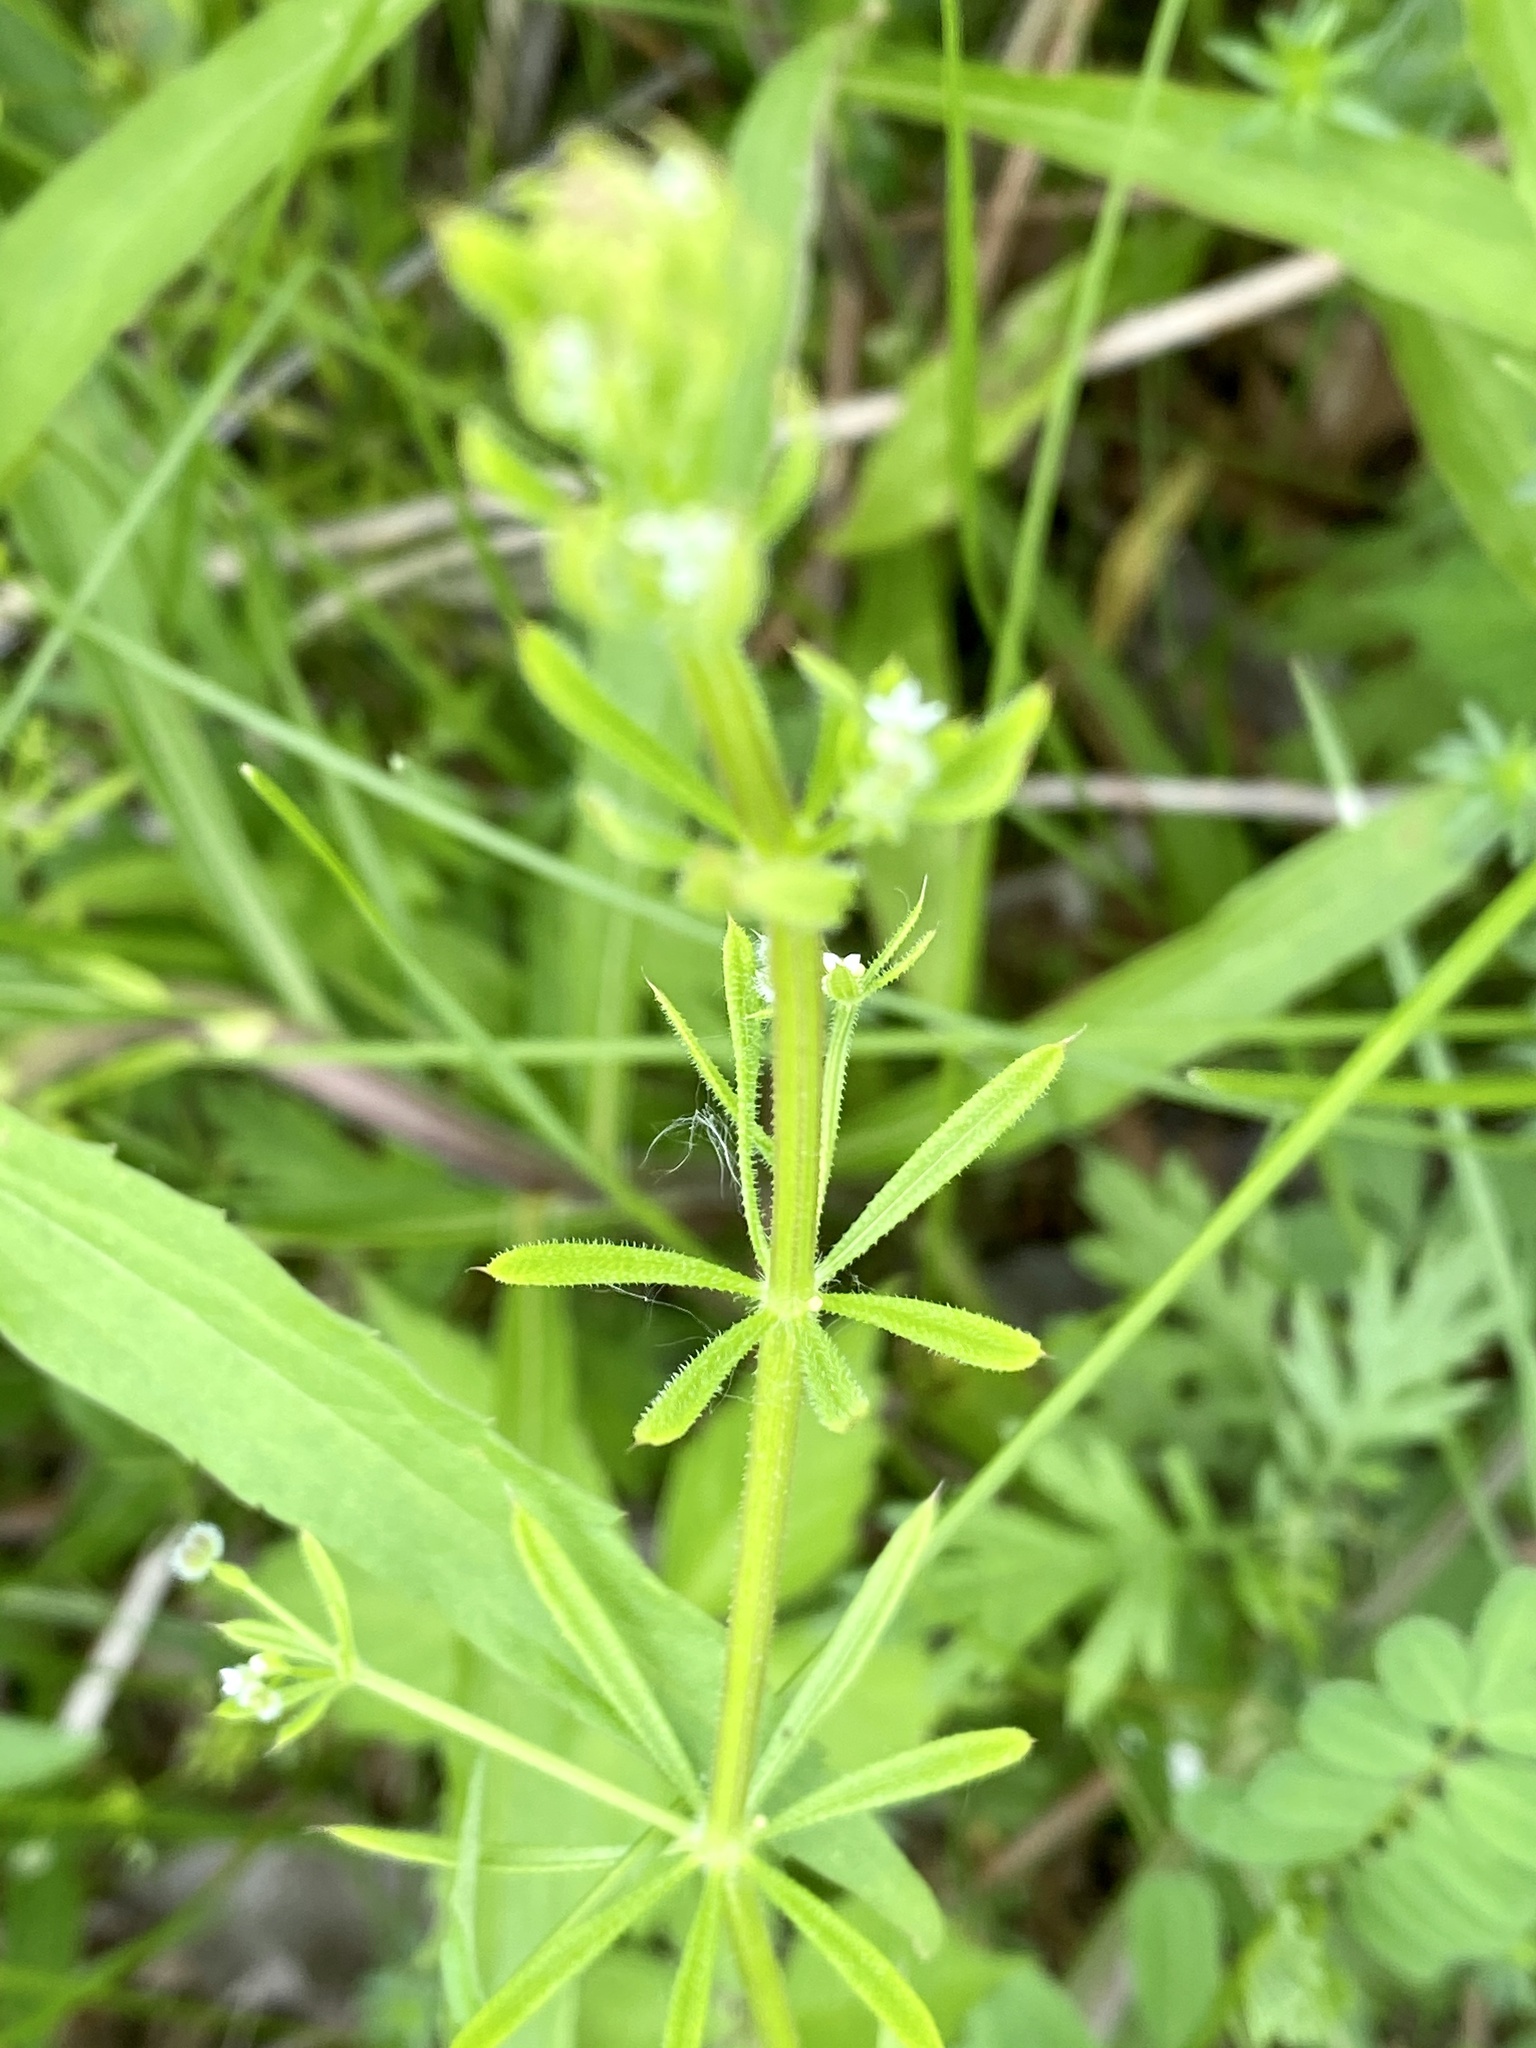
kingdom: Plantae
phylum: Tracheophyta
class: Magnoliopsida
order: Gentianales
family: Rubiaceae
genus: Galium
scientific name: Galium aparine
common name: Cleavers
